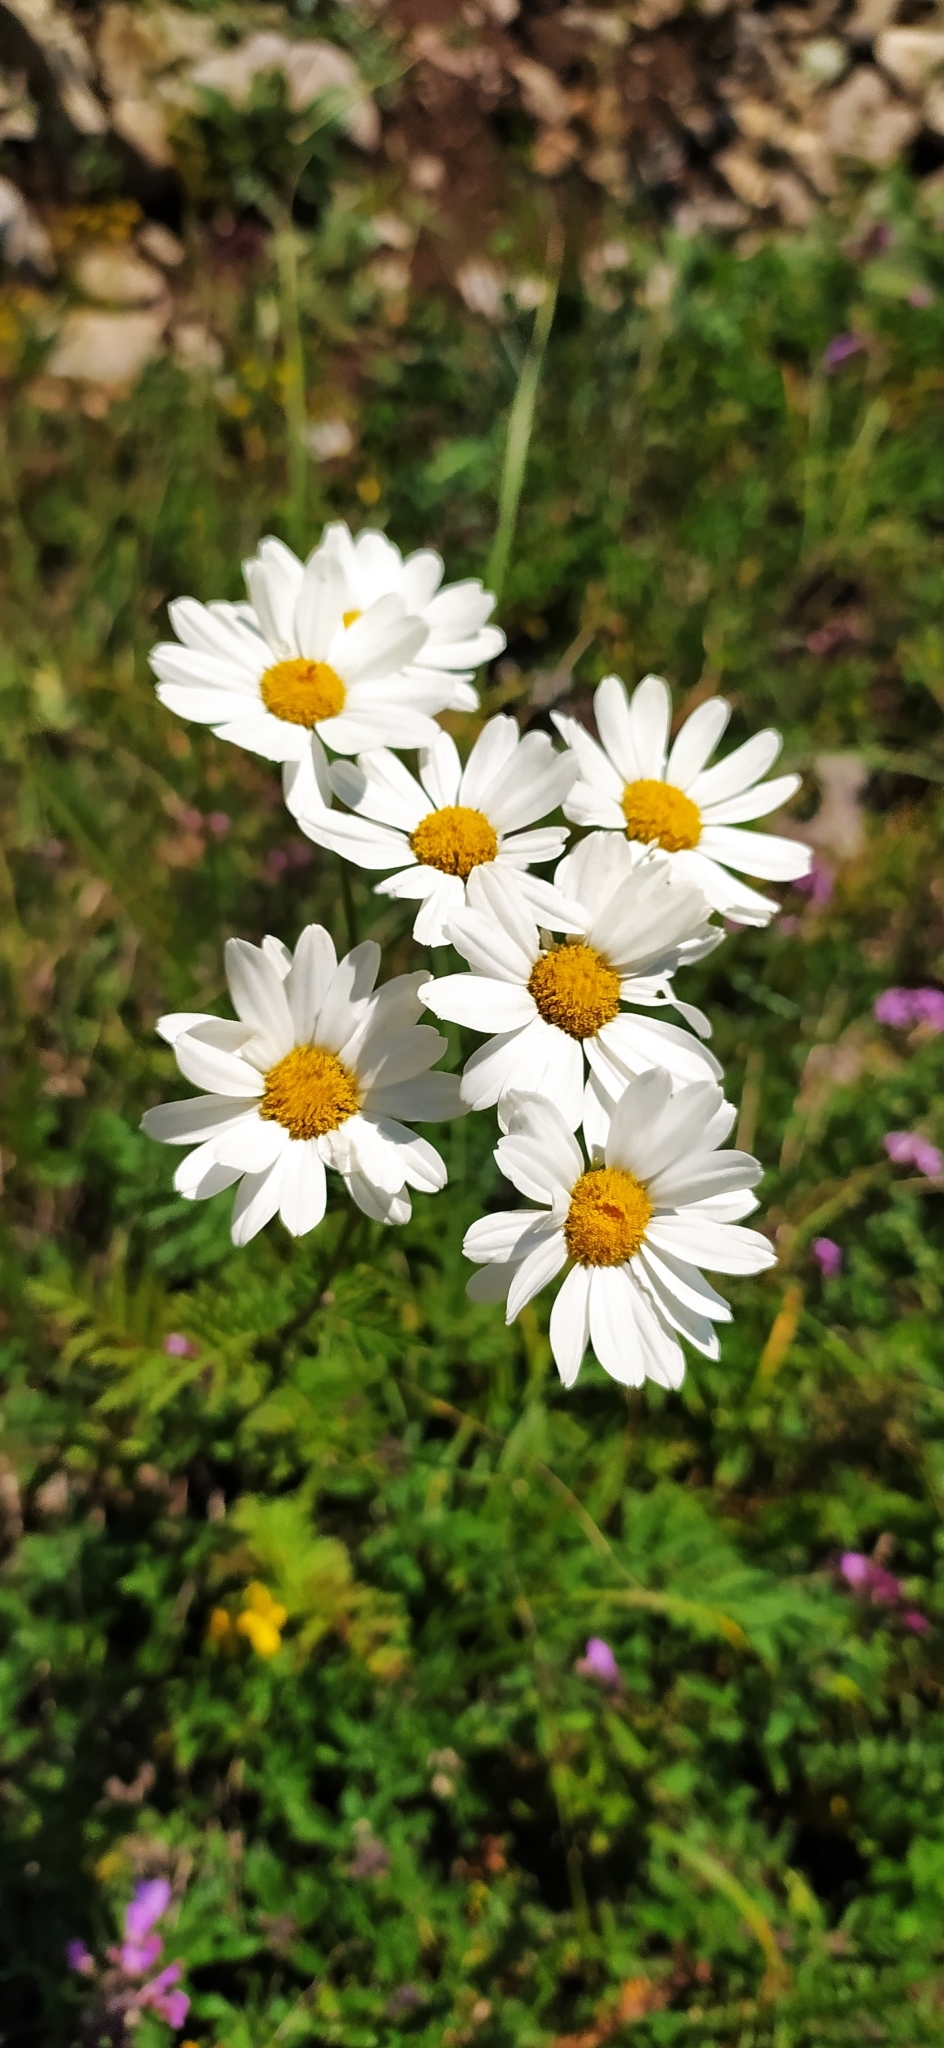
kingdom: Plantae
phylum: Tracheophyta
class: Magnoliopsida
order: Asterales
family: Asteraceae
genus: Tanacetum
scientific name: Tanacetum corymbosum
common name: Scentless feverfew
